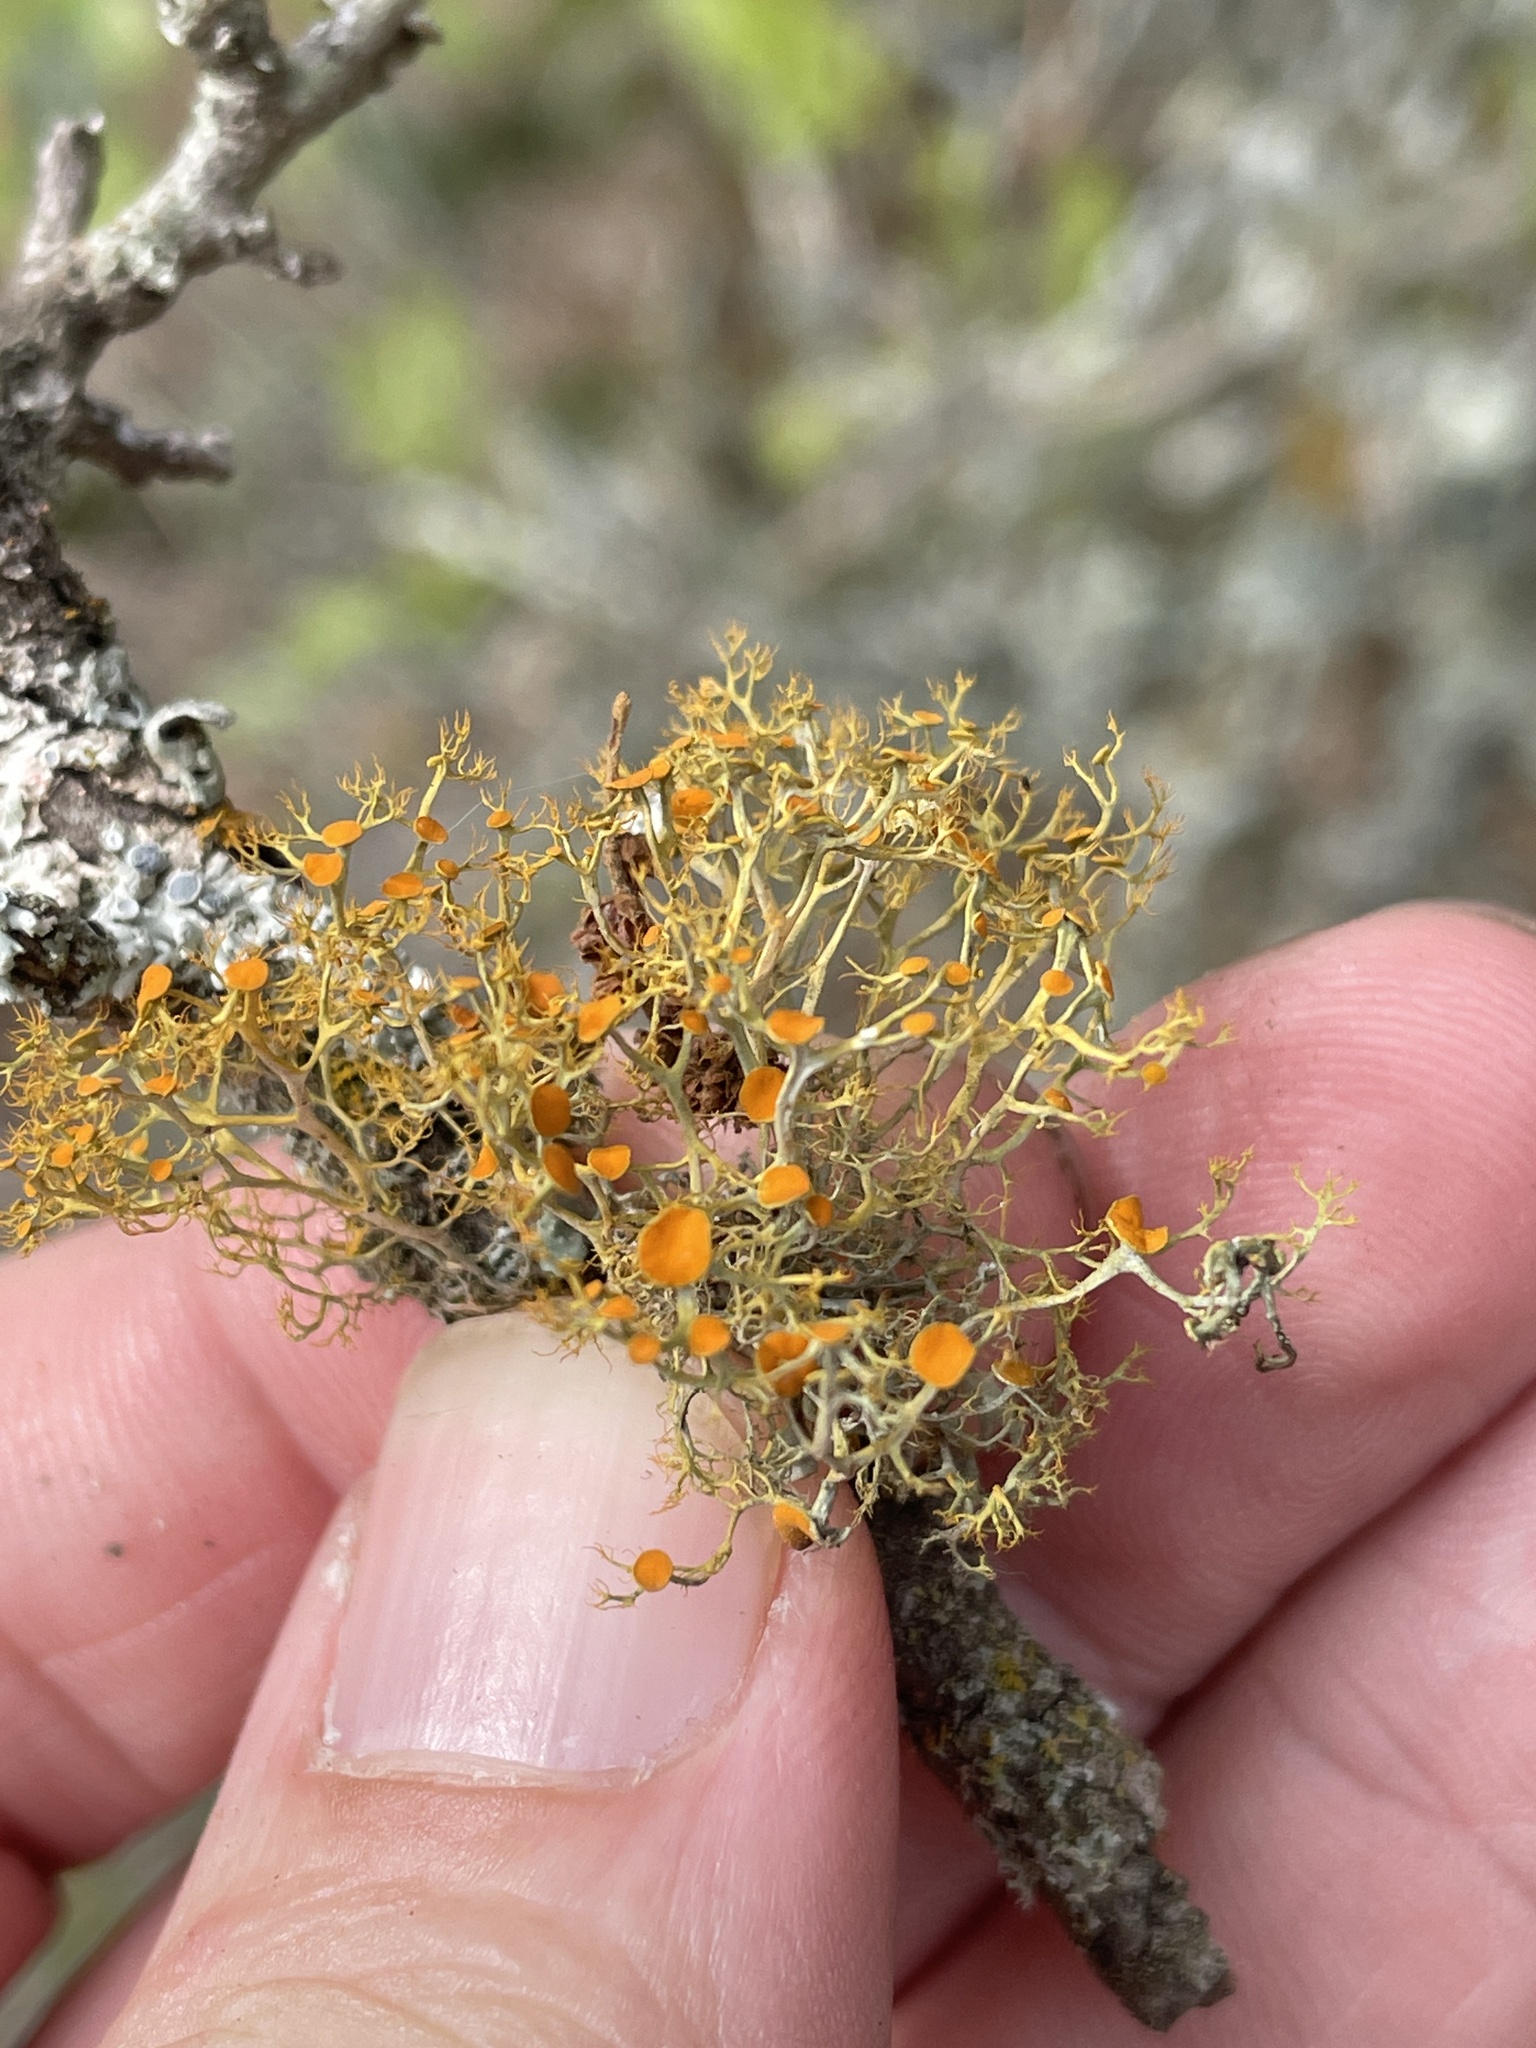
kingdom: Fungi
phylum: Ascomycota
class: Lecanoromycetes
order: Teloschistales
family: Teloschistaceae
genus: Teloschistes
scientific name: Teloschistes exilis
